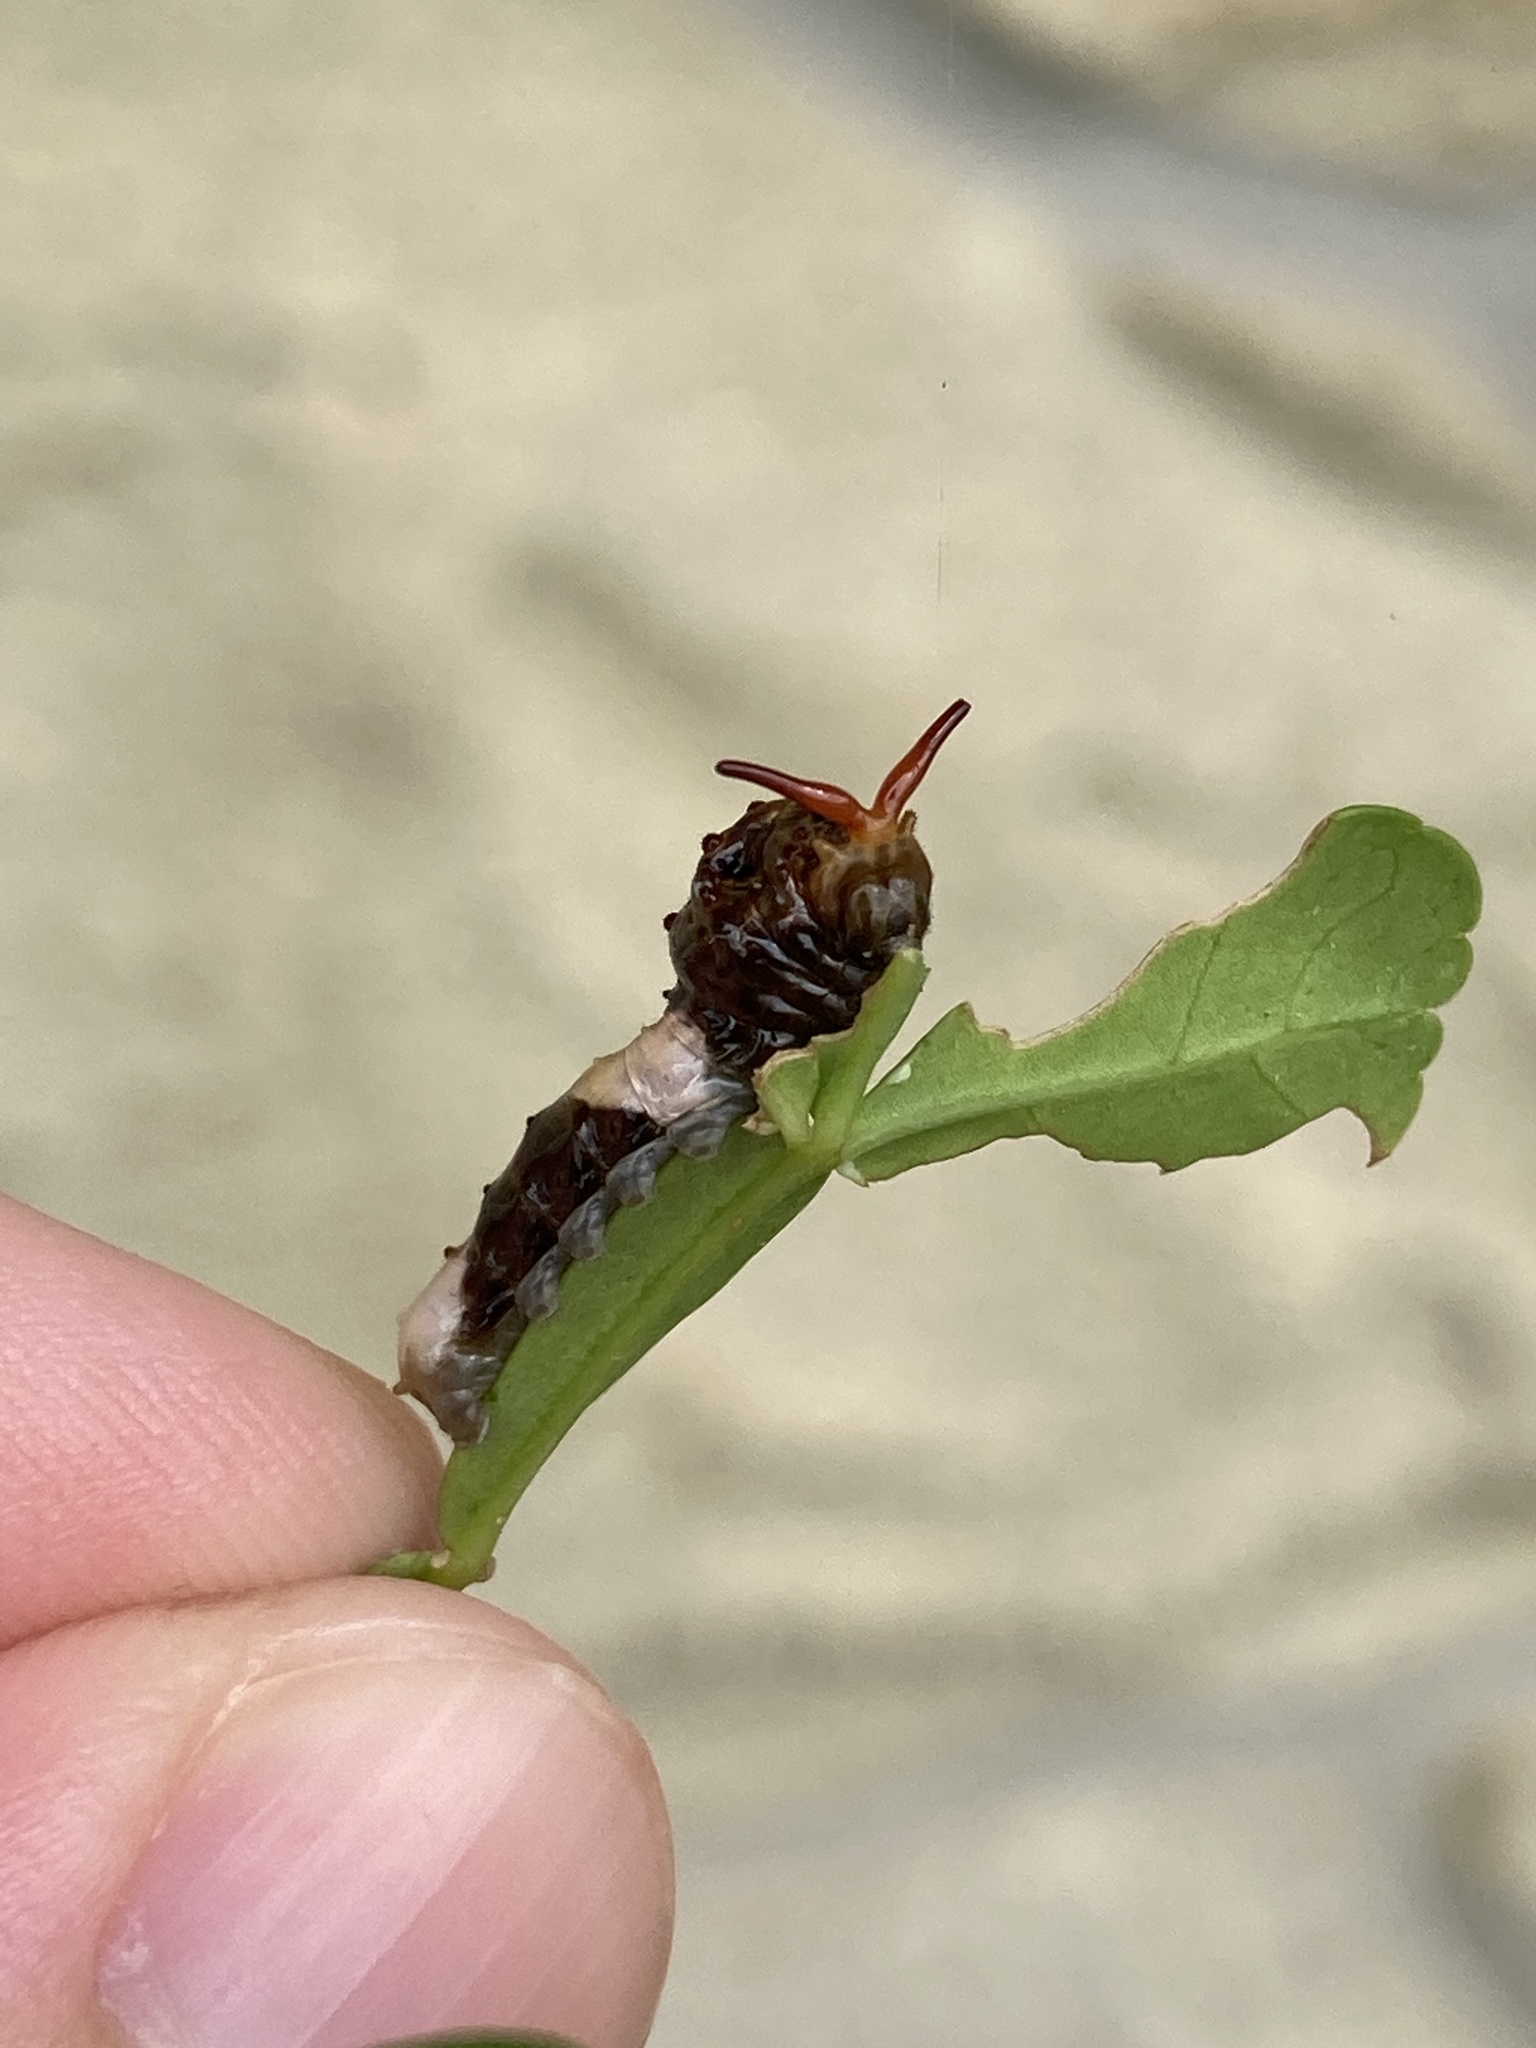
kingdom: Animalia
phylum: Arthropoda
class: Insecta
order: Lepidoptera
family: Papilionidae
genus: Papilio
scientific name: Papilio cresphontes
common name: Giant swallowtail
